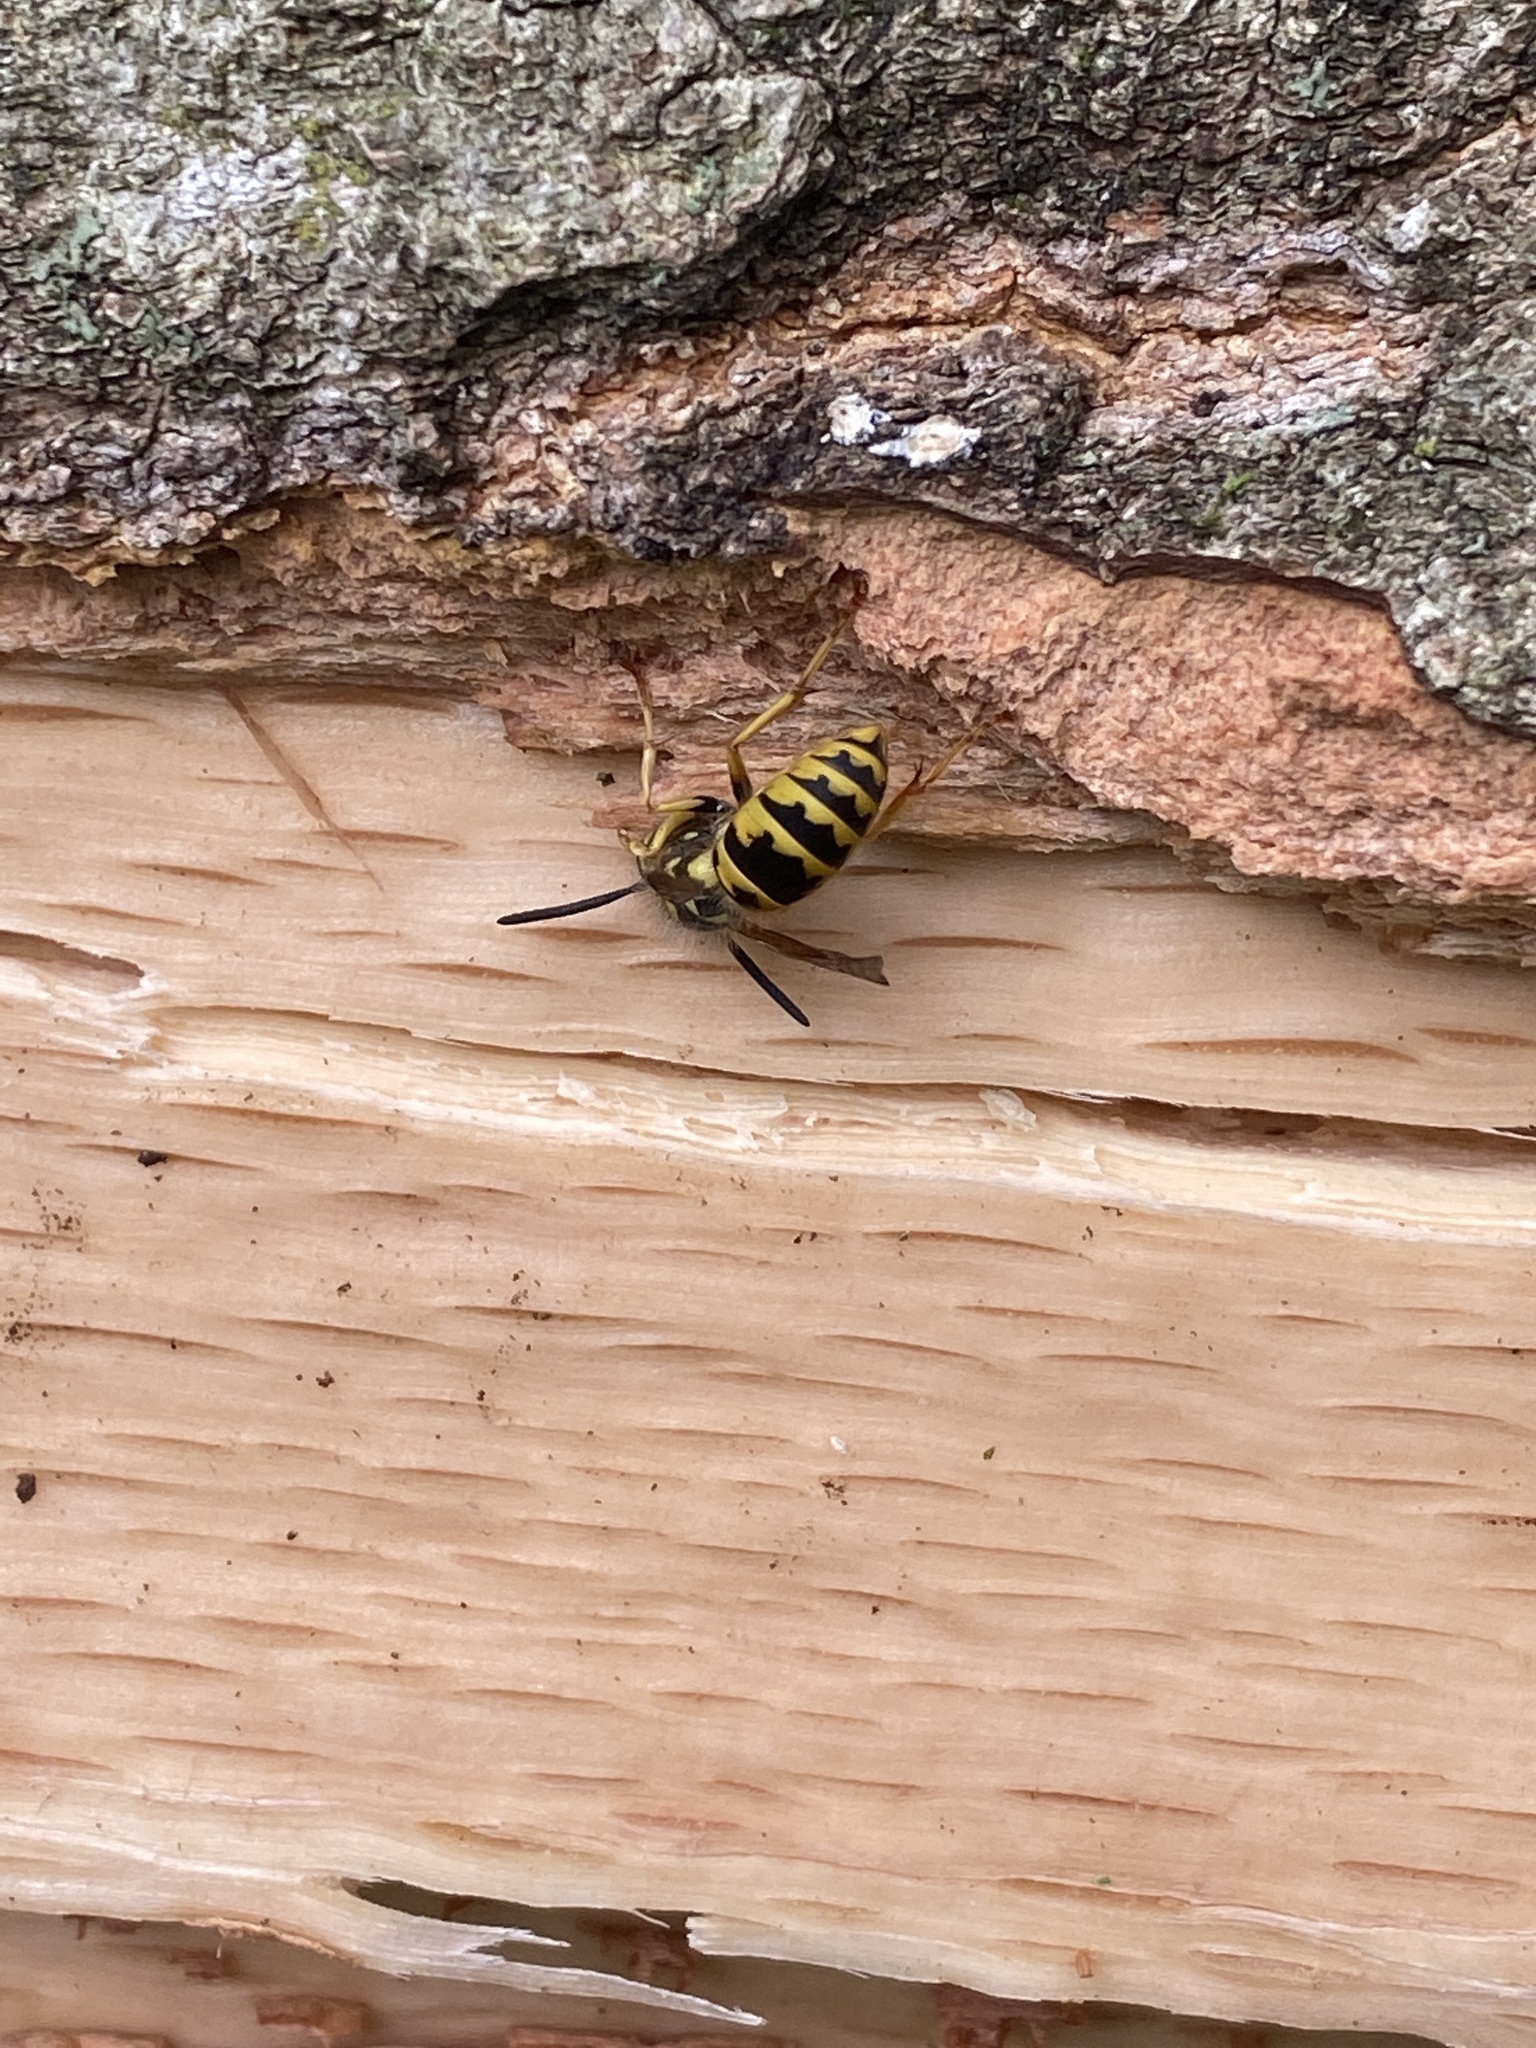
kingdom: Animalia
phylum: Arthropoda
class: Insecta
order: Hymenoptera
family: Vespidae
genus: Vespula
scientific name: Vespula flavopilosa
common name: Downy yellowjacket
